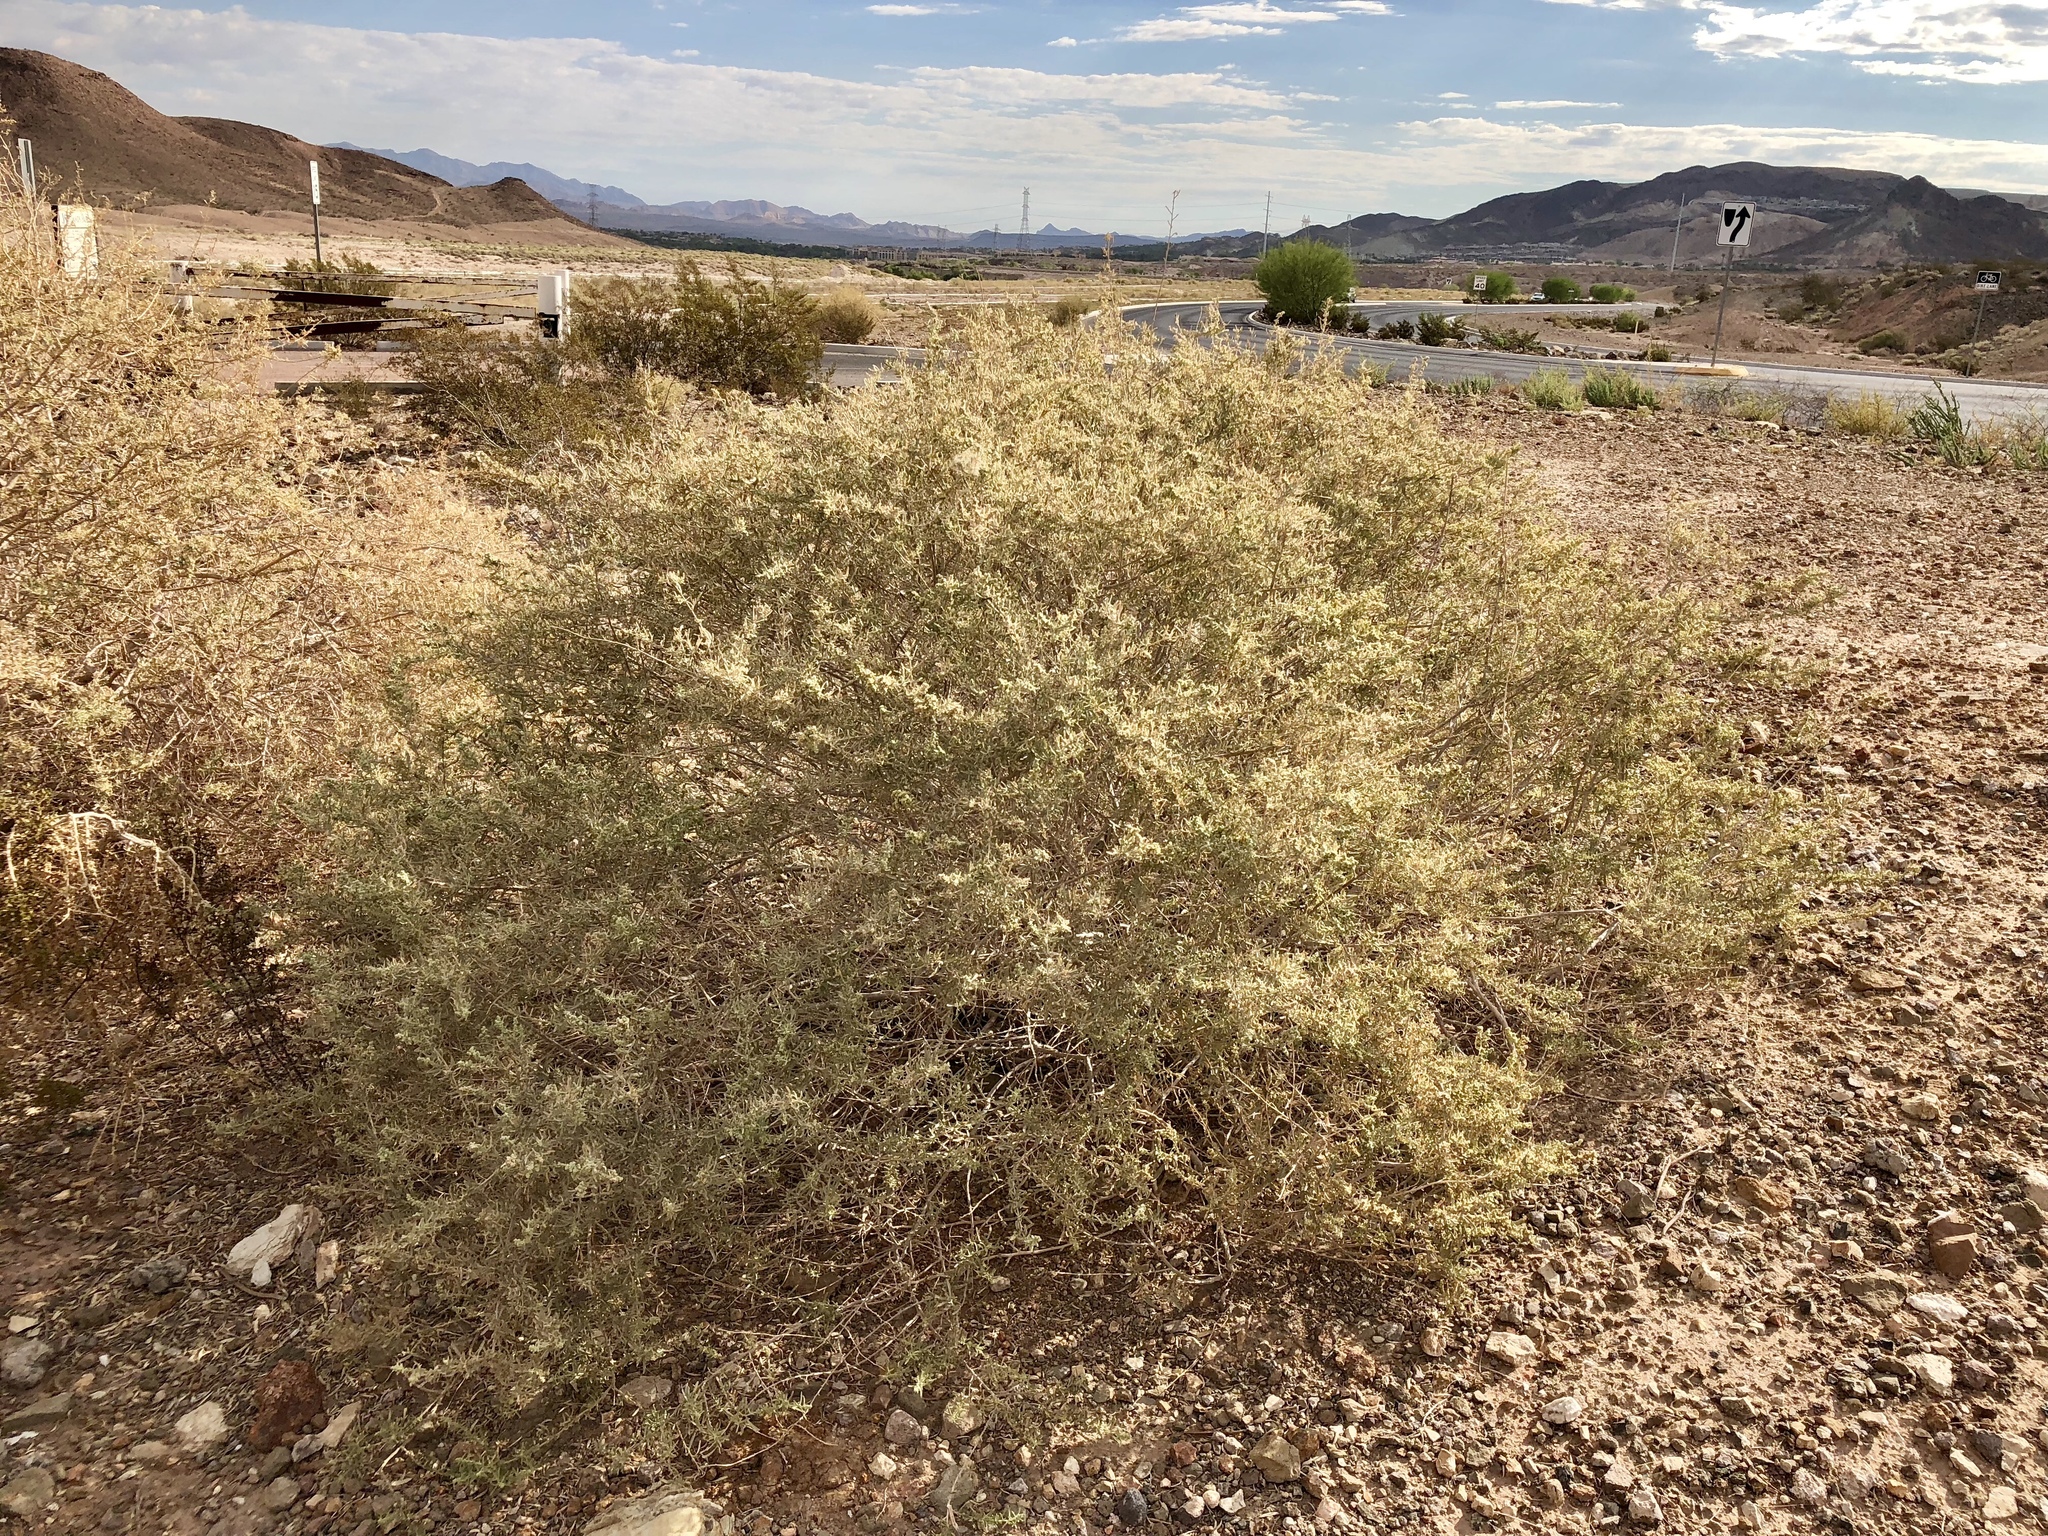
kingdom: Plantae
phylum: Tracheophyta
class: Magnoliopsida
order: Caryophyllales
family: Amaranthaceae
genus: Atriplex
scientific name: Atriplex canescens
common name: Four-wing saltbush
